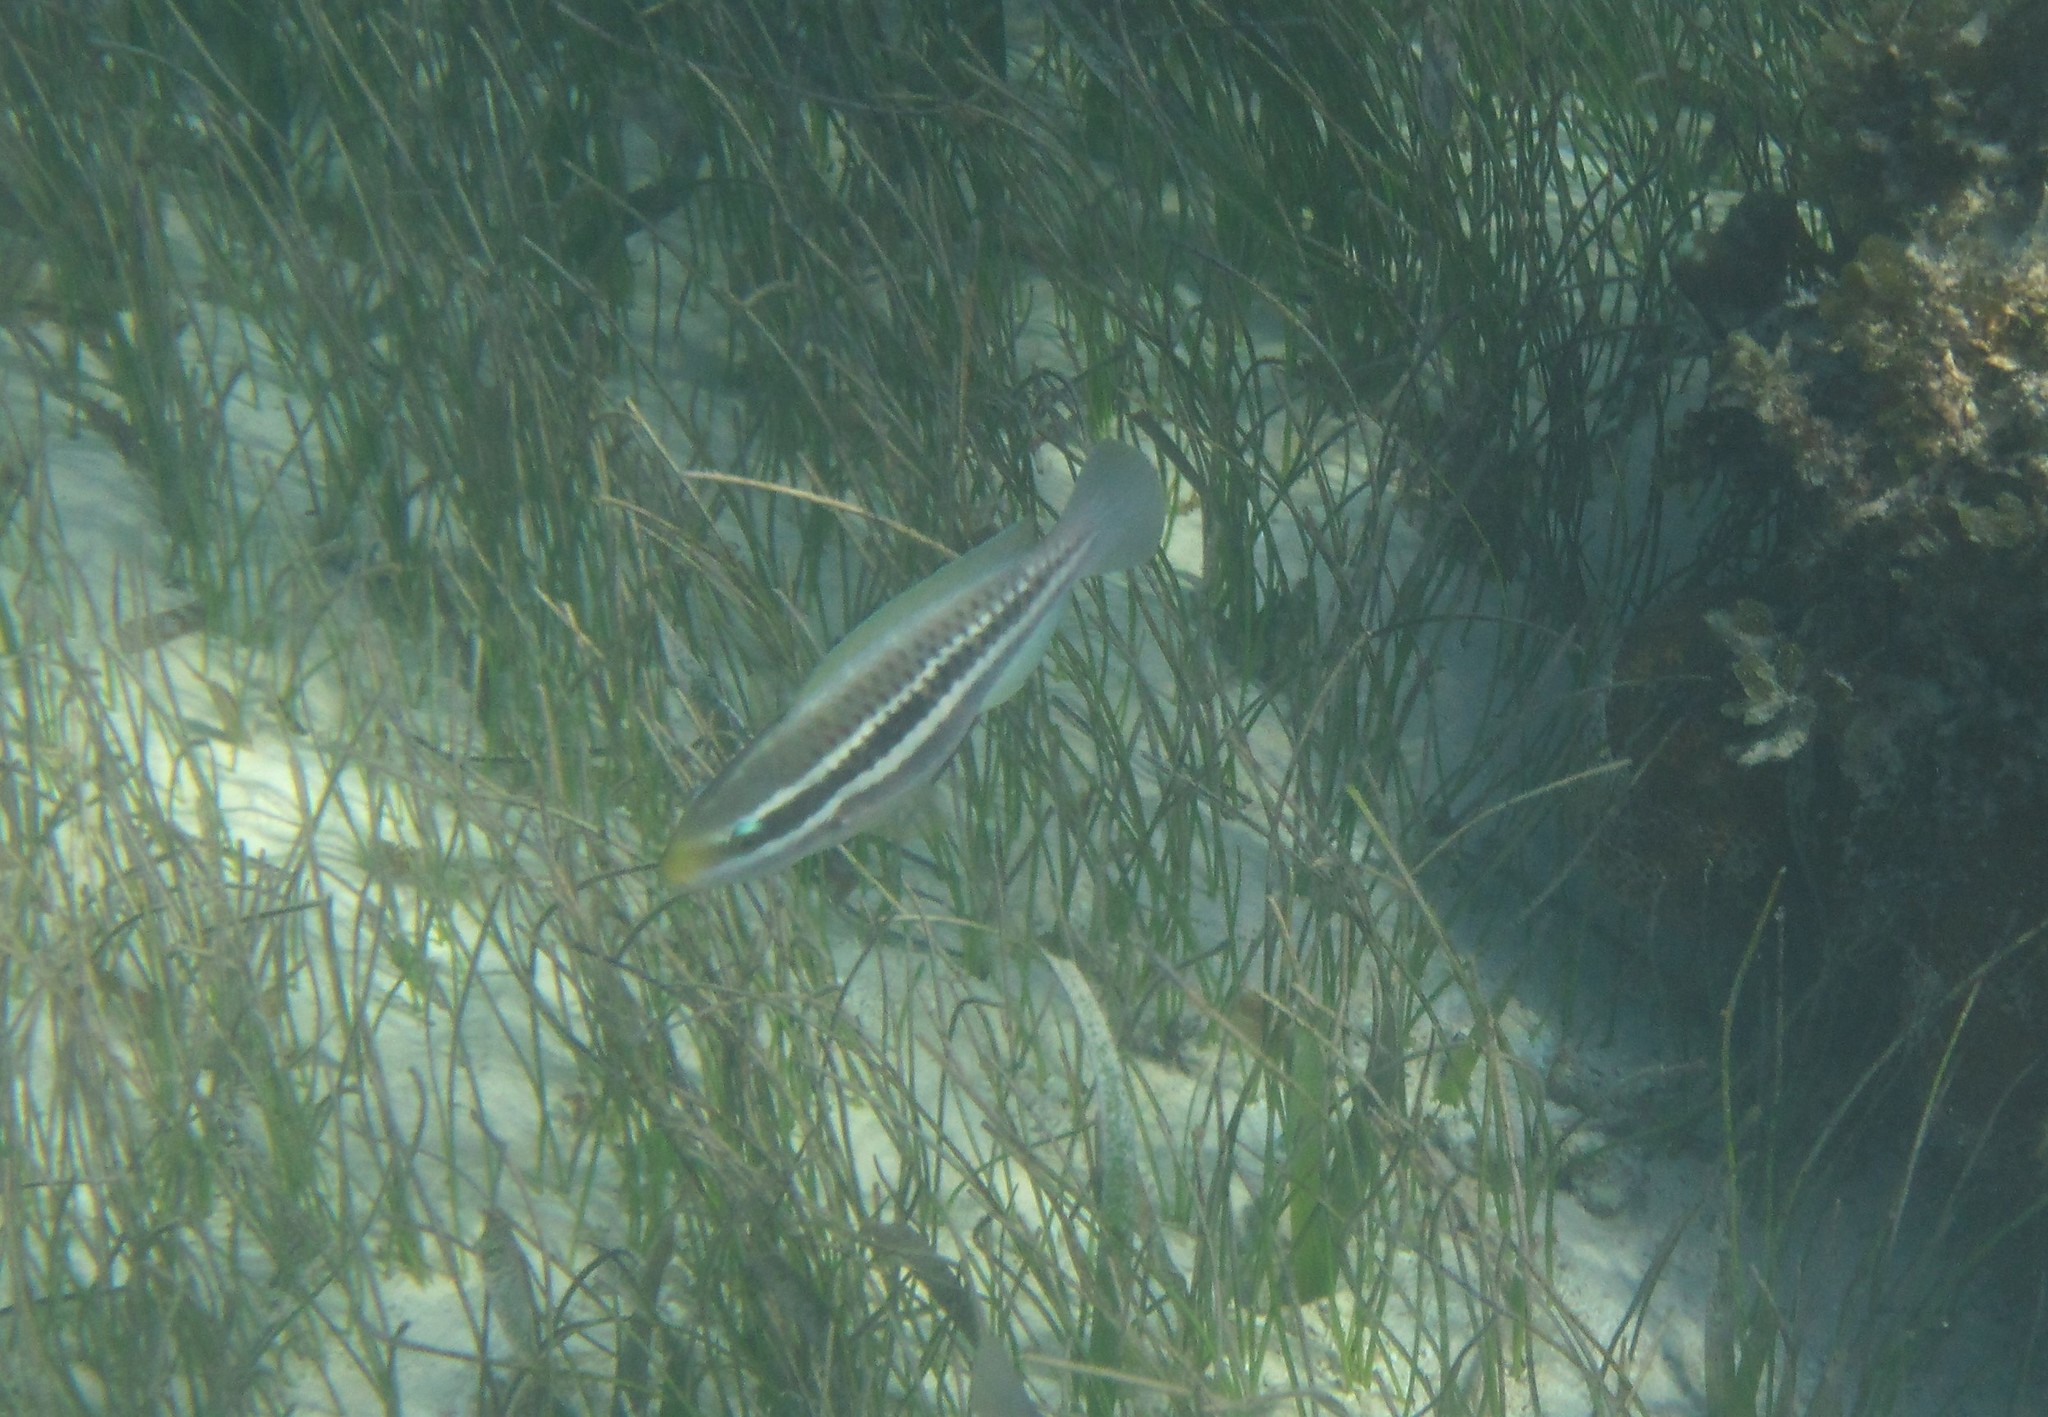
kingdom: Animalia
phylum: Chordata
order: Perciformes
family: Scaridae
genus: Scarus
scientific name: Scarus iseri
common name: Striped parrotfish
